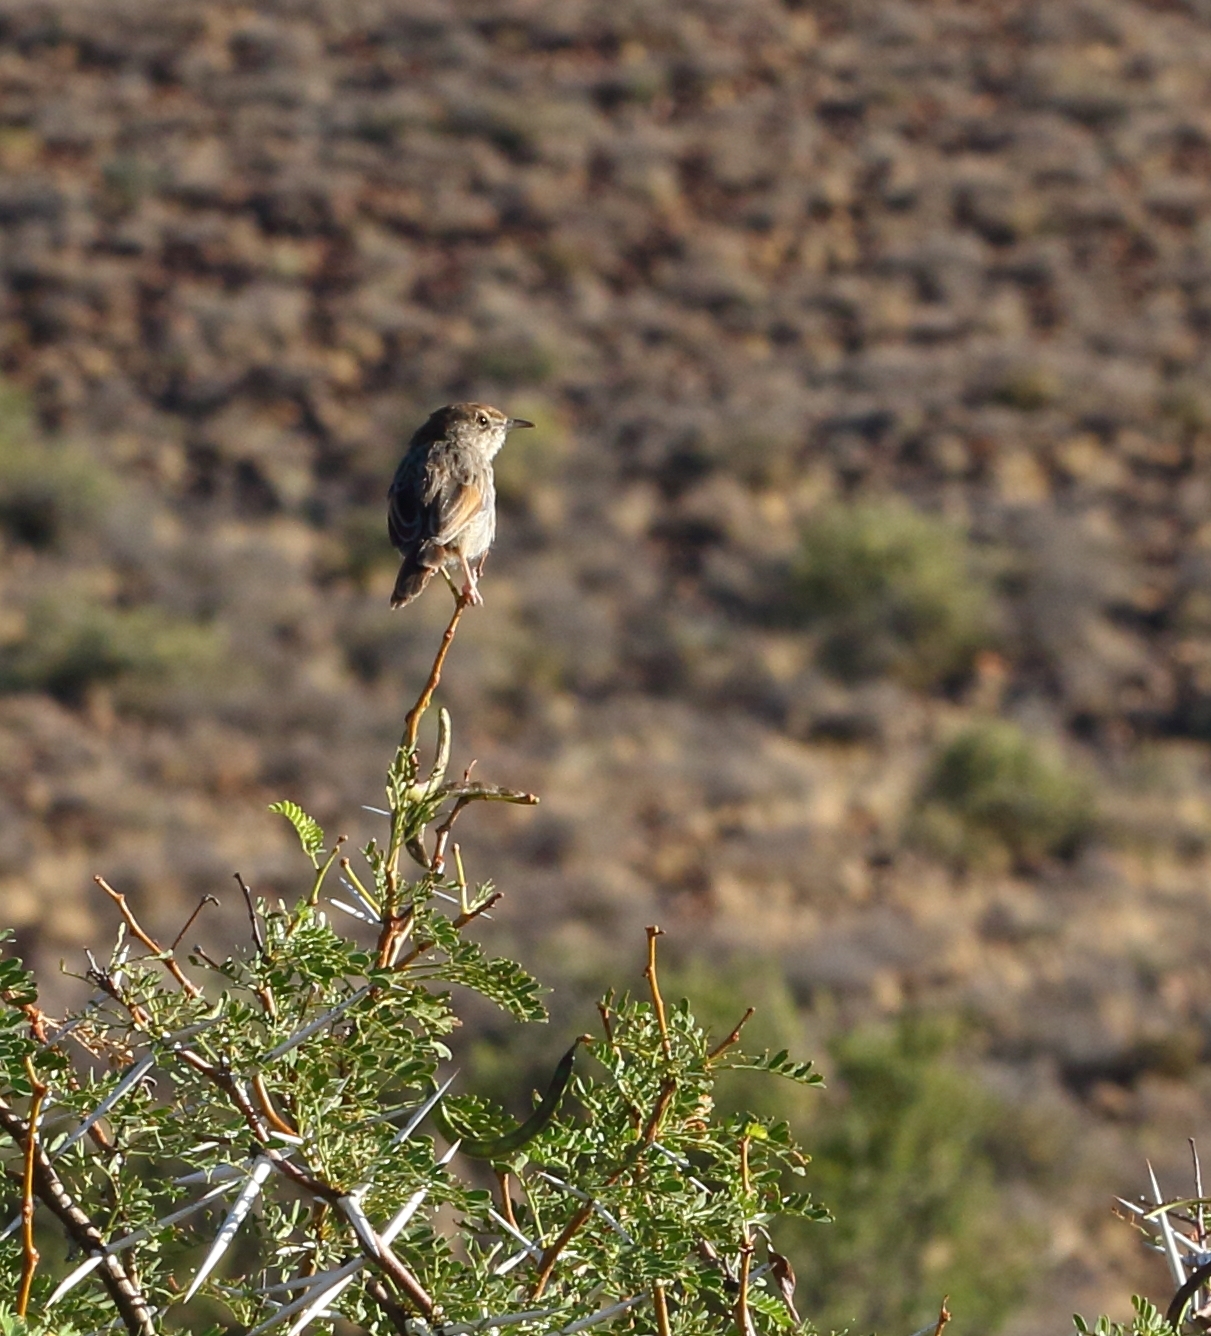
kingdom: Animalia
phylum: Chordata
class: Aves
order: Passeriformes
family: Cisticolidae
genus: Cisticola
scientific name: Cisticola subruficapilla
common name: Grey-backed cisticola
